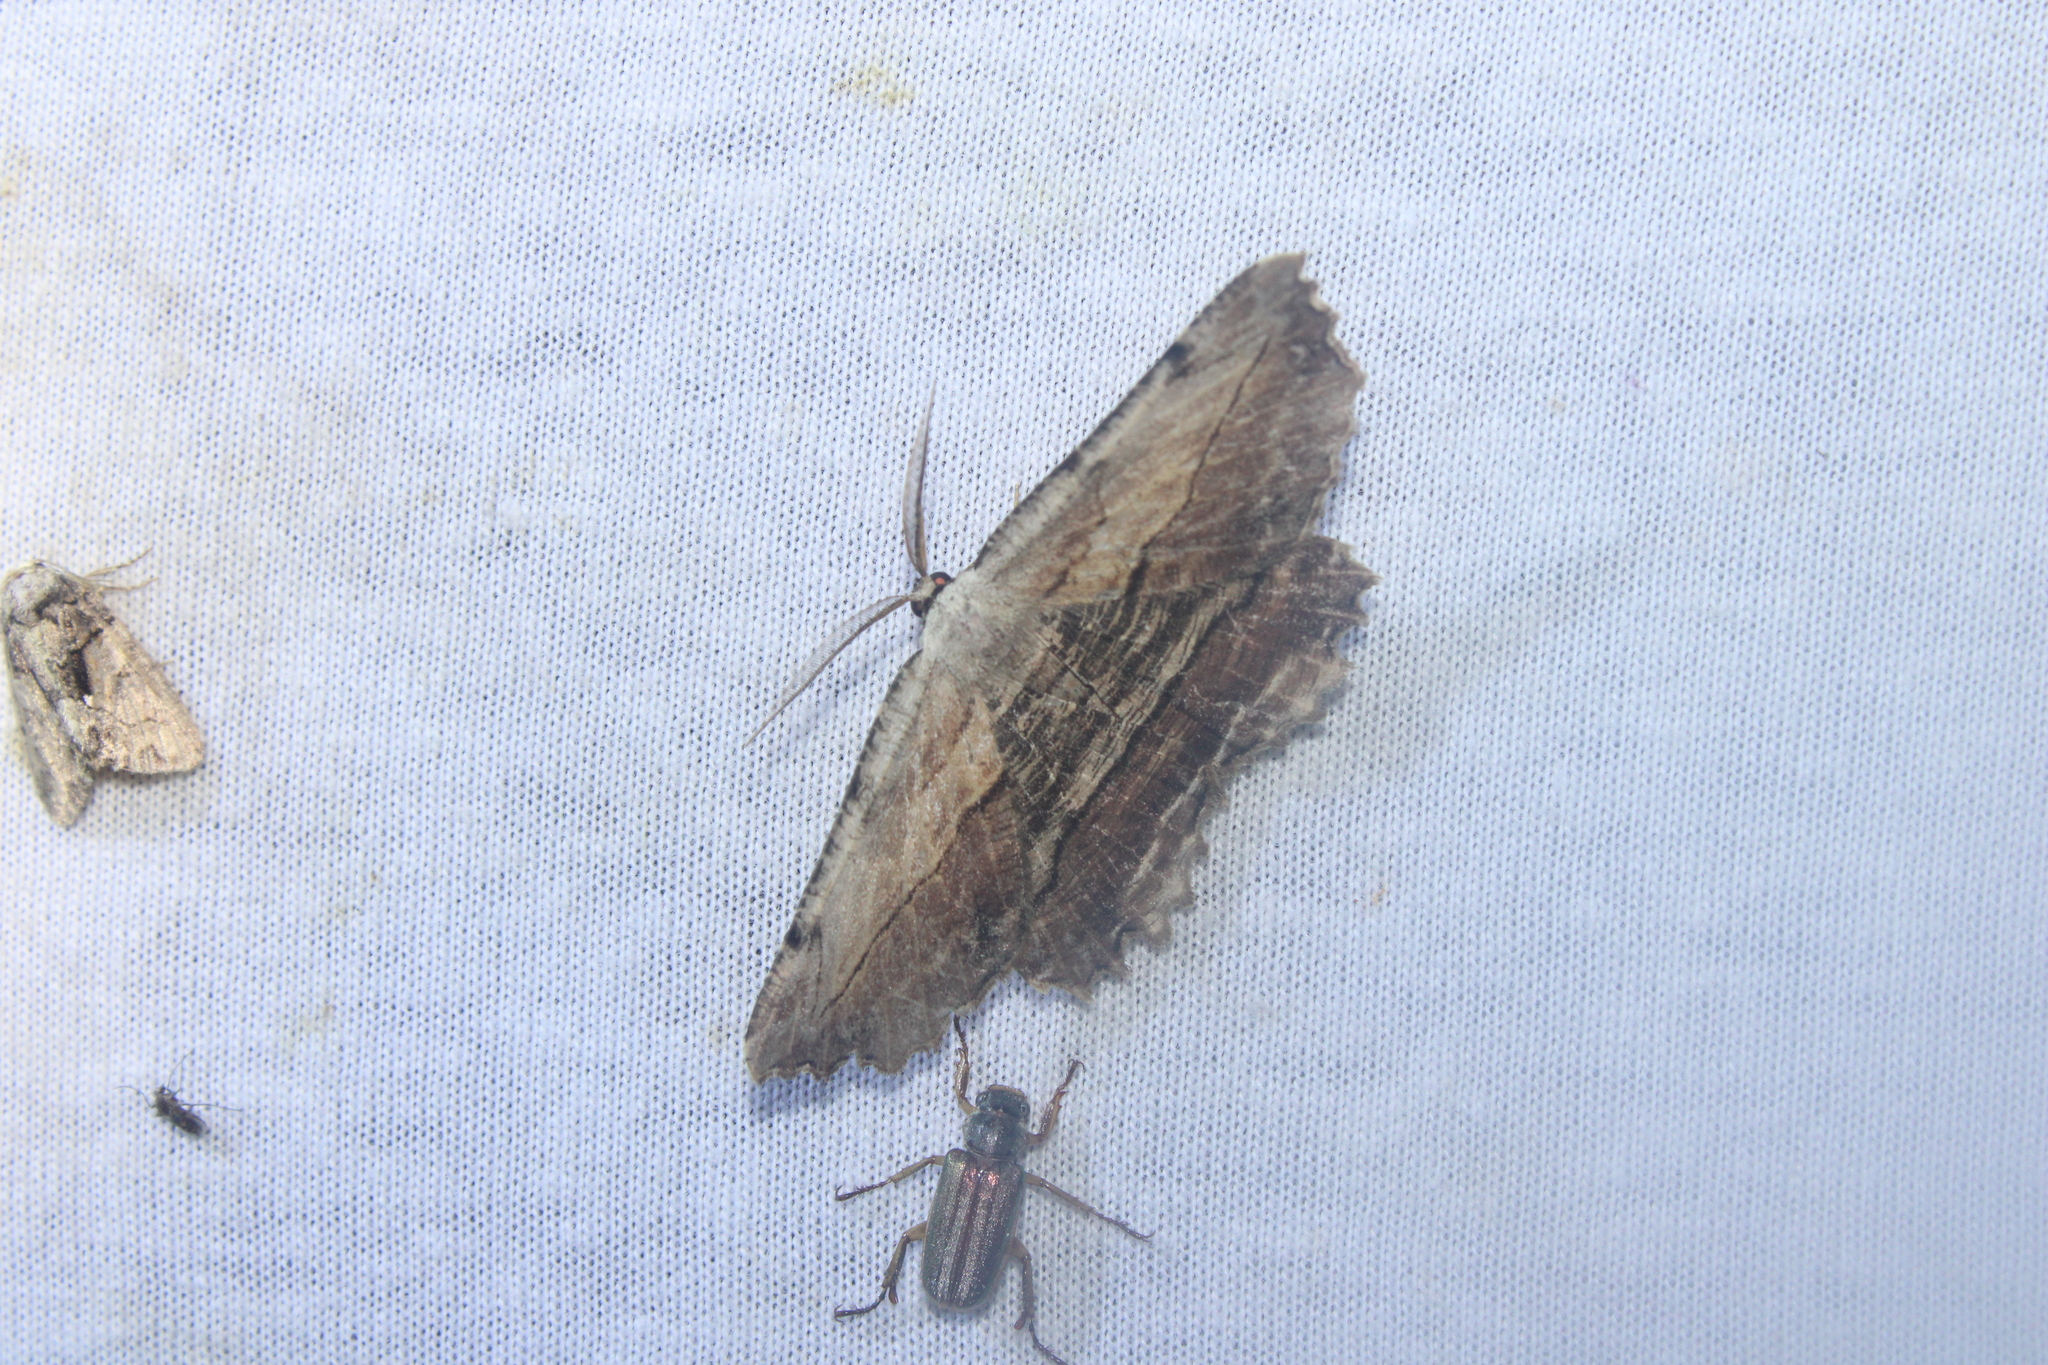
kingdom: Animalia
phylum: Arthropoda
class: Insecta
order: Lepidoptera
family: Geometridae
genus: Lytrosis
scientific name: Lytrosis unitaria
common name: Common lytrosis
